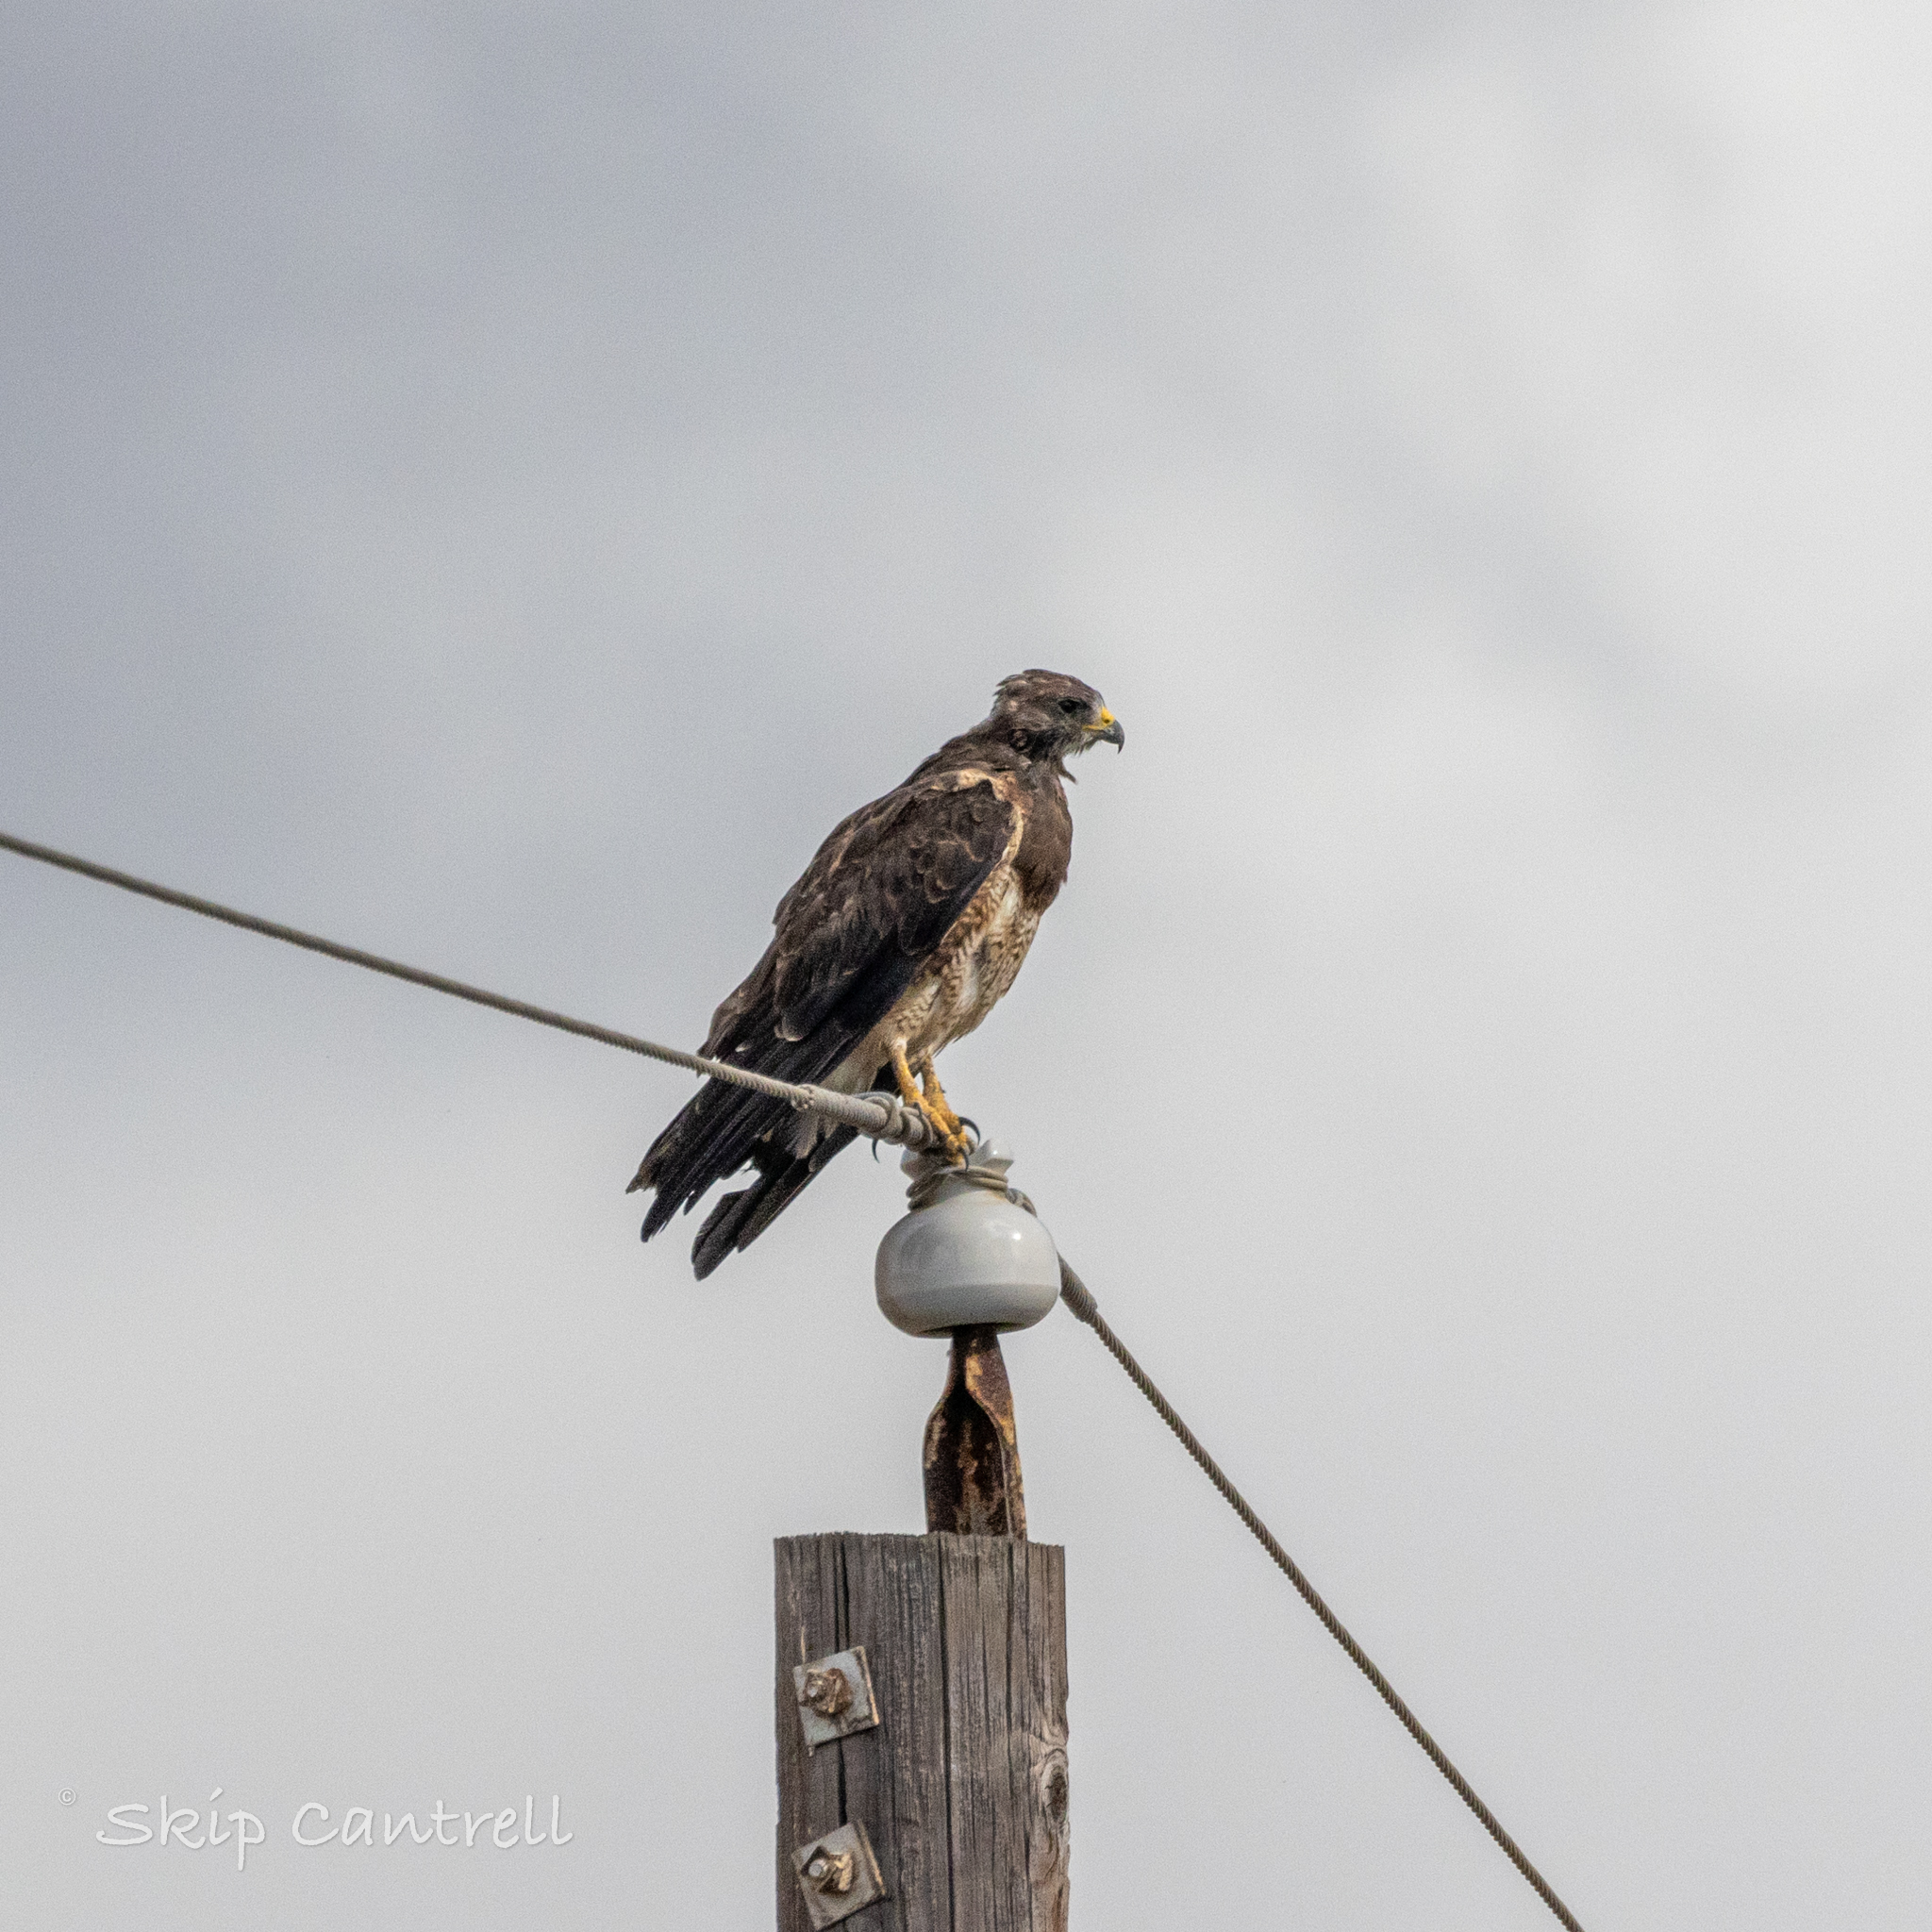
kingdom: Animalia
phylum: Chordata
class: Aves
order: Accipitriformes
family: Accipitridae
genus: Buteo
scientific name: Buteo swainsoni
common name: Swainson's hawk
